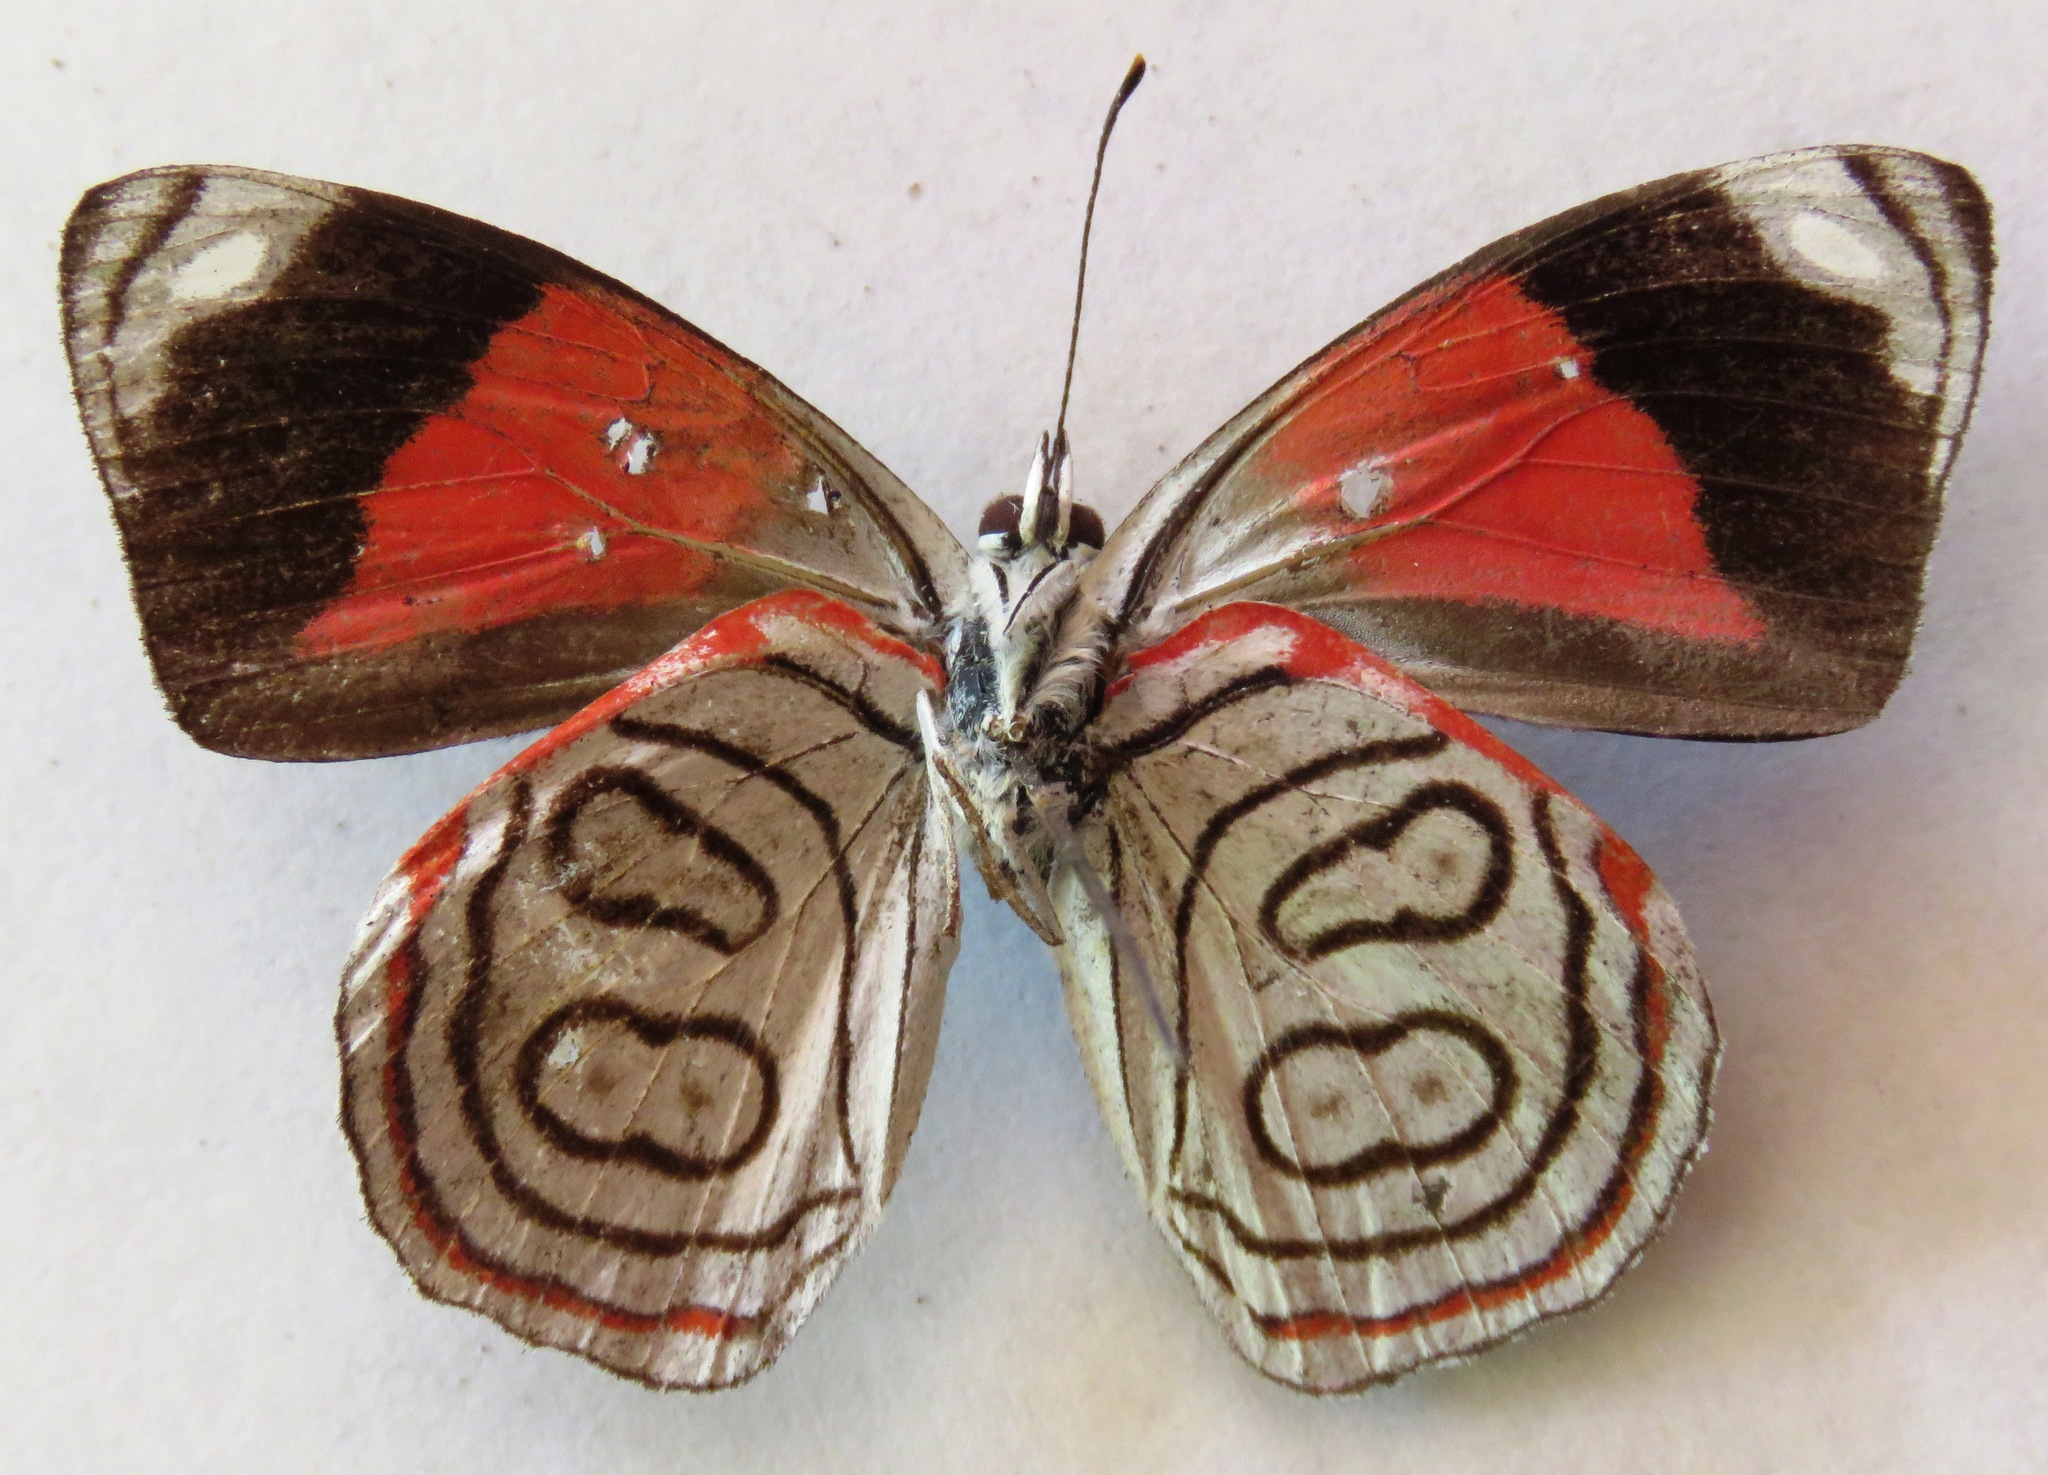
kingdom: Animalia
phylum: Arthropoda
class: Insecta
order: Lepidoptera
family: Nymphalidae
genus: Diaethria
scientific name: Diaethria astala
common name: Navy eighty-eight
